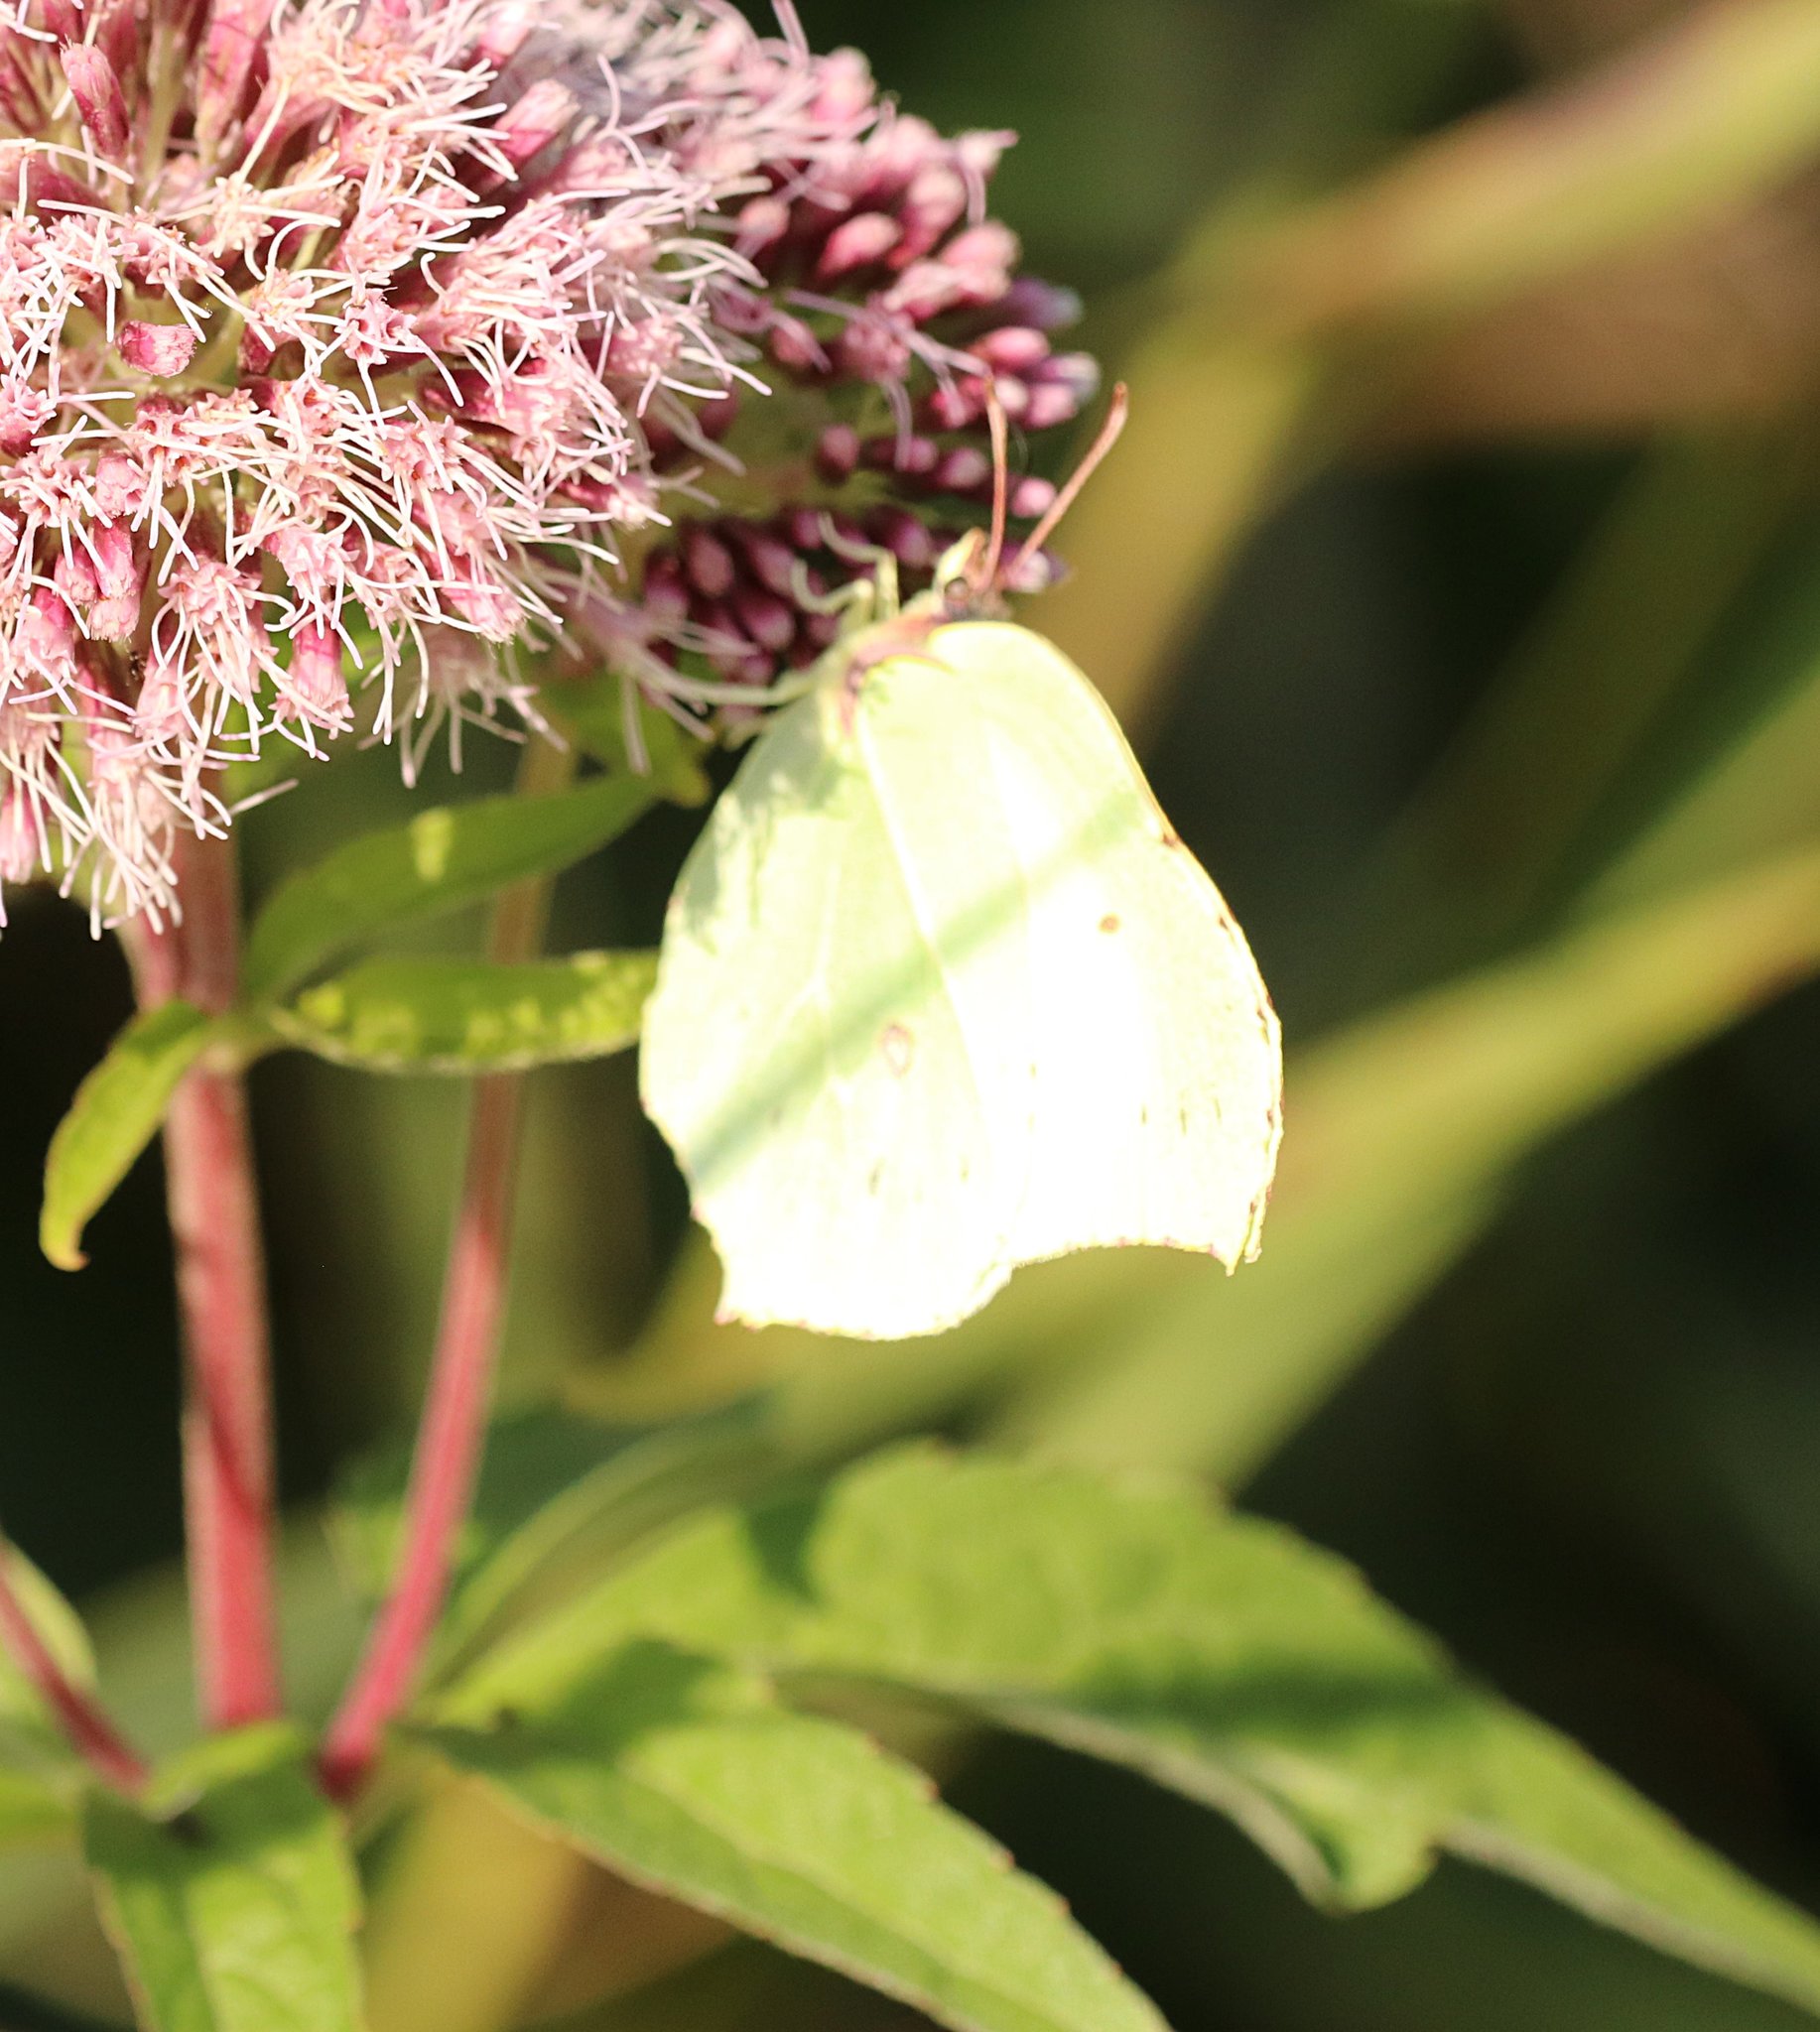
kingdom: Animalia
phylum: Arthropoda
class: Insecta
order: Lepidoptera
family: Pieridae
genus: Gonepteryx
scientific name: Gonepteryx rhamni
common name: Brimstone
